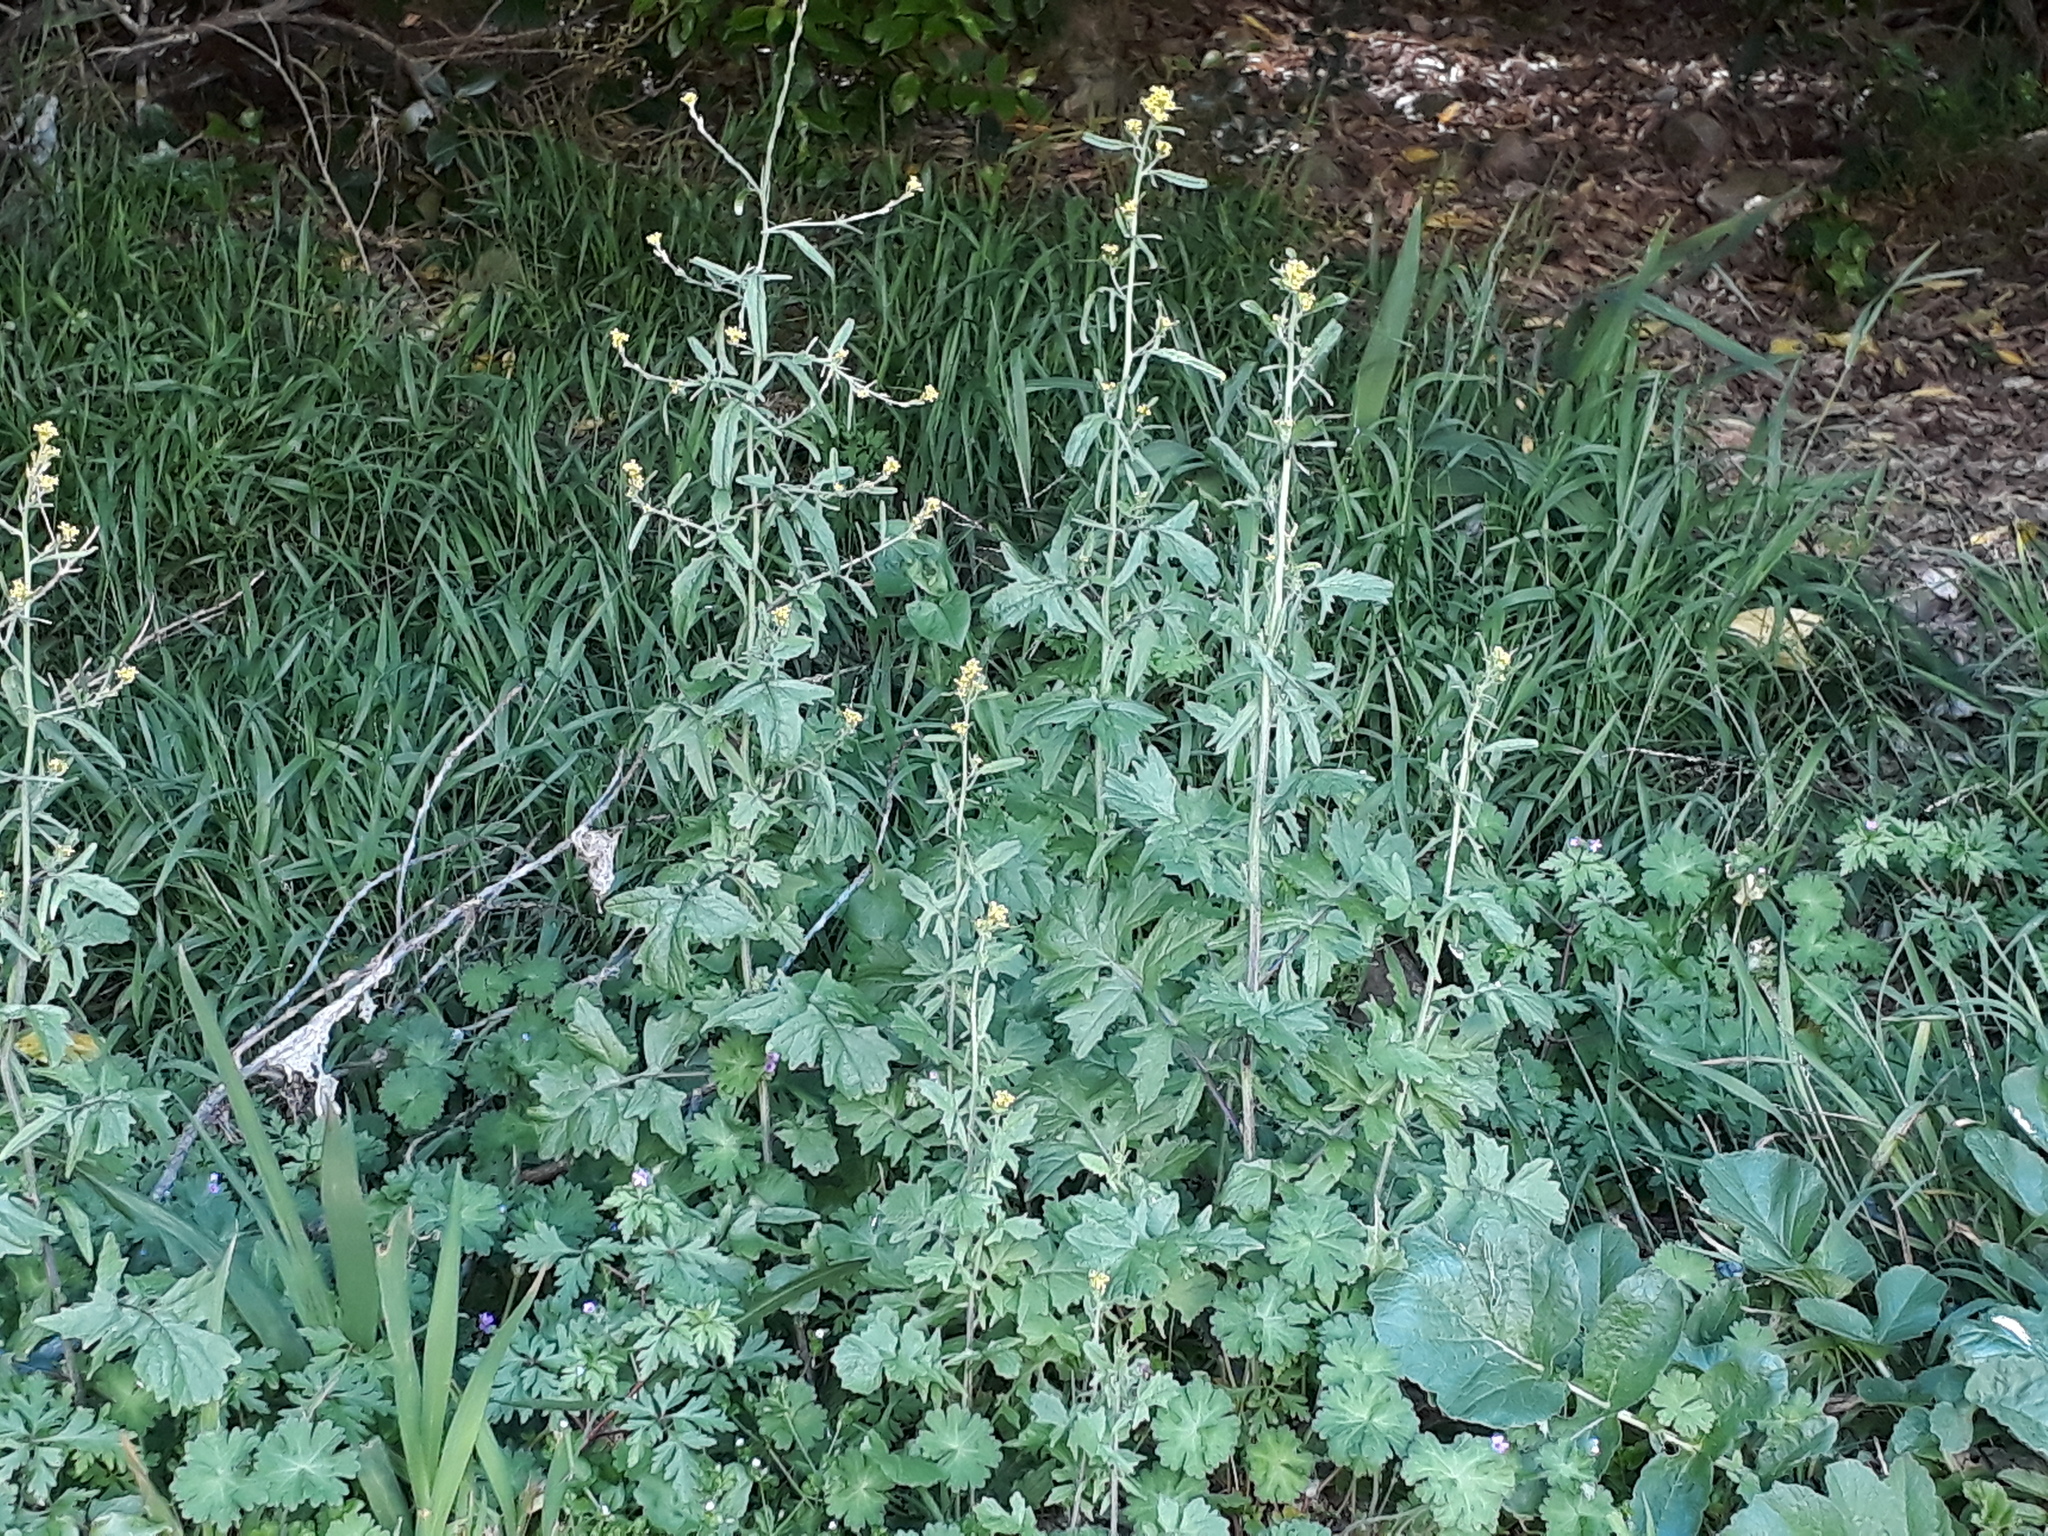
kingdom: Plantae
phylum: Tracheophyta
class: Magnoliopsida
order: Brassicales
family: Brassicaceae
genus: Sisymbrium
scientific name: Sisymbrium officinale
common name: Hedge mustard
